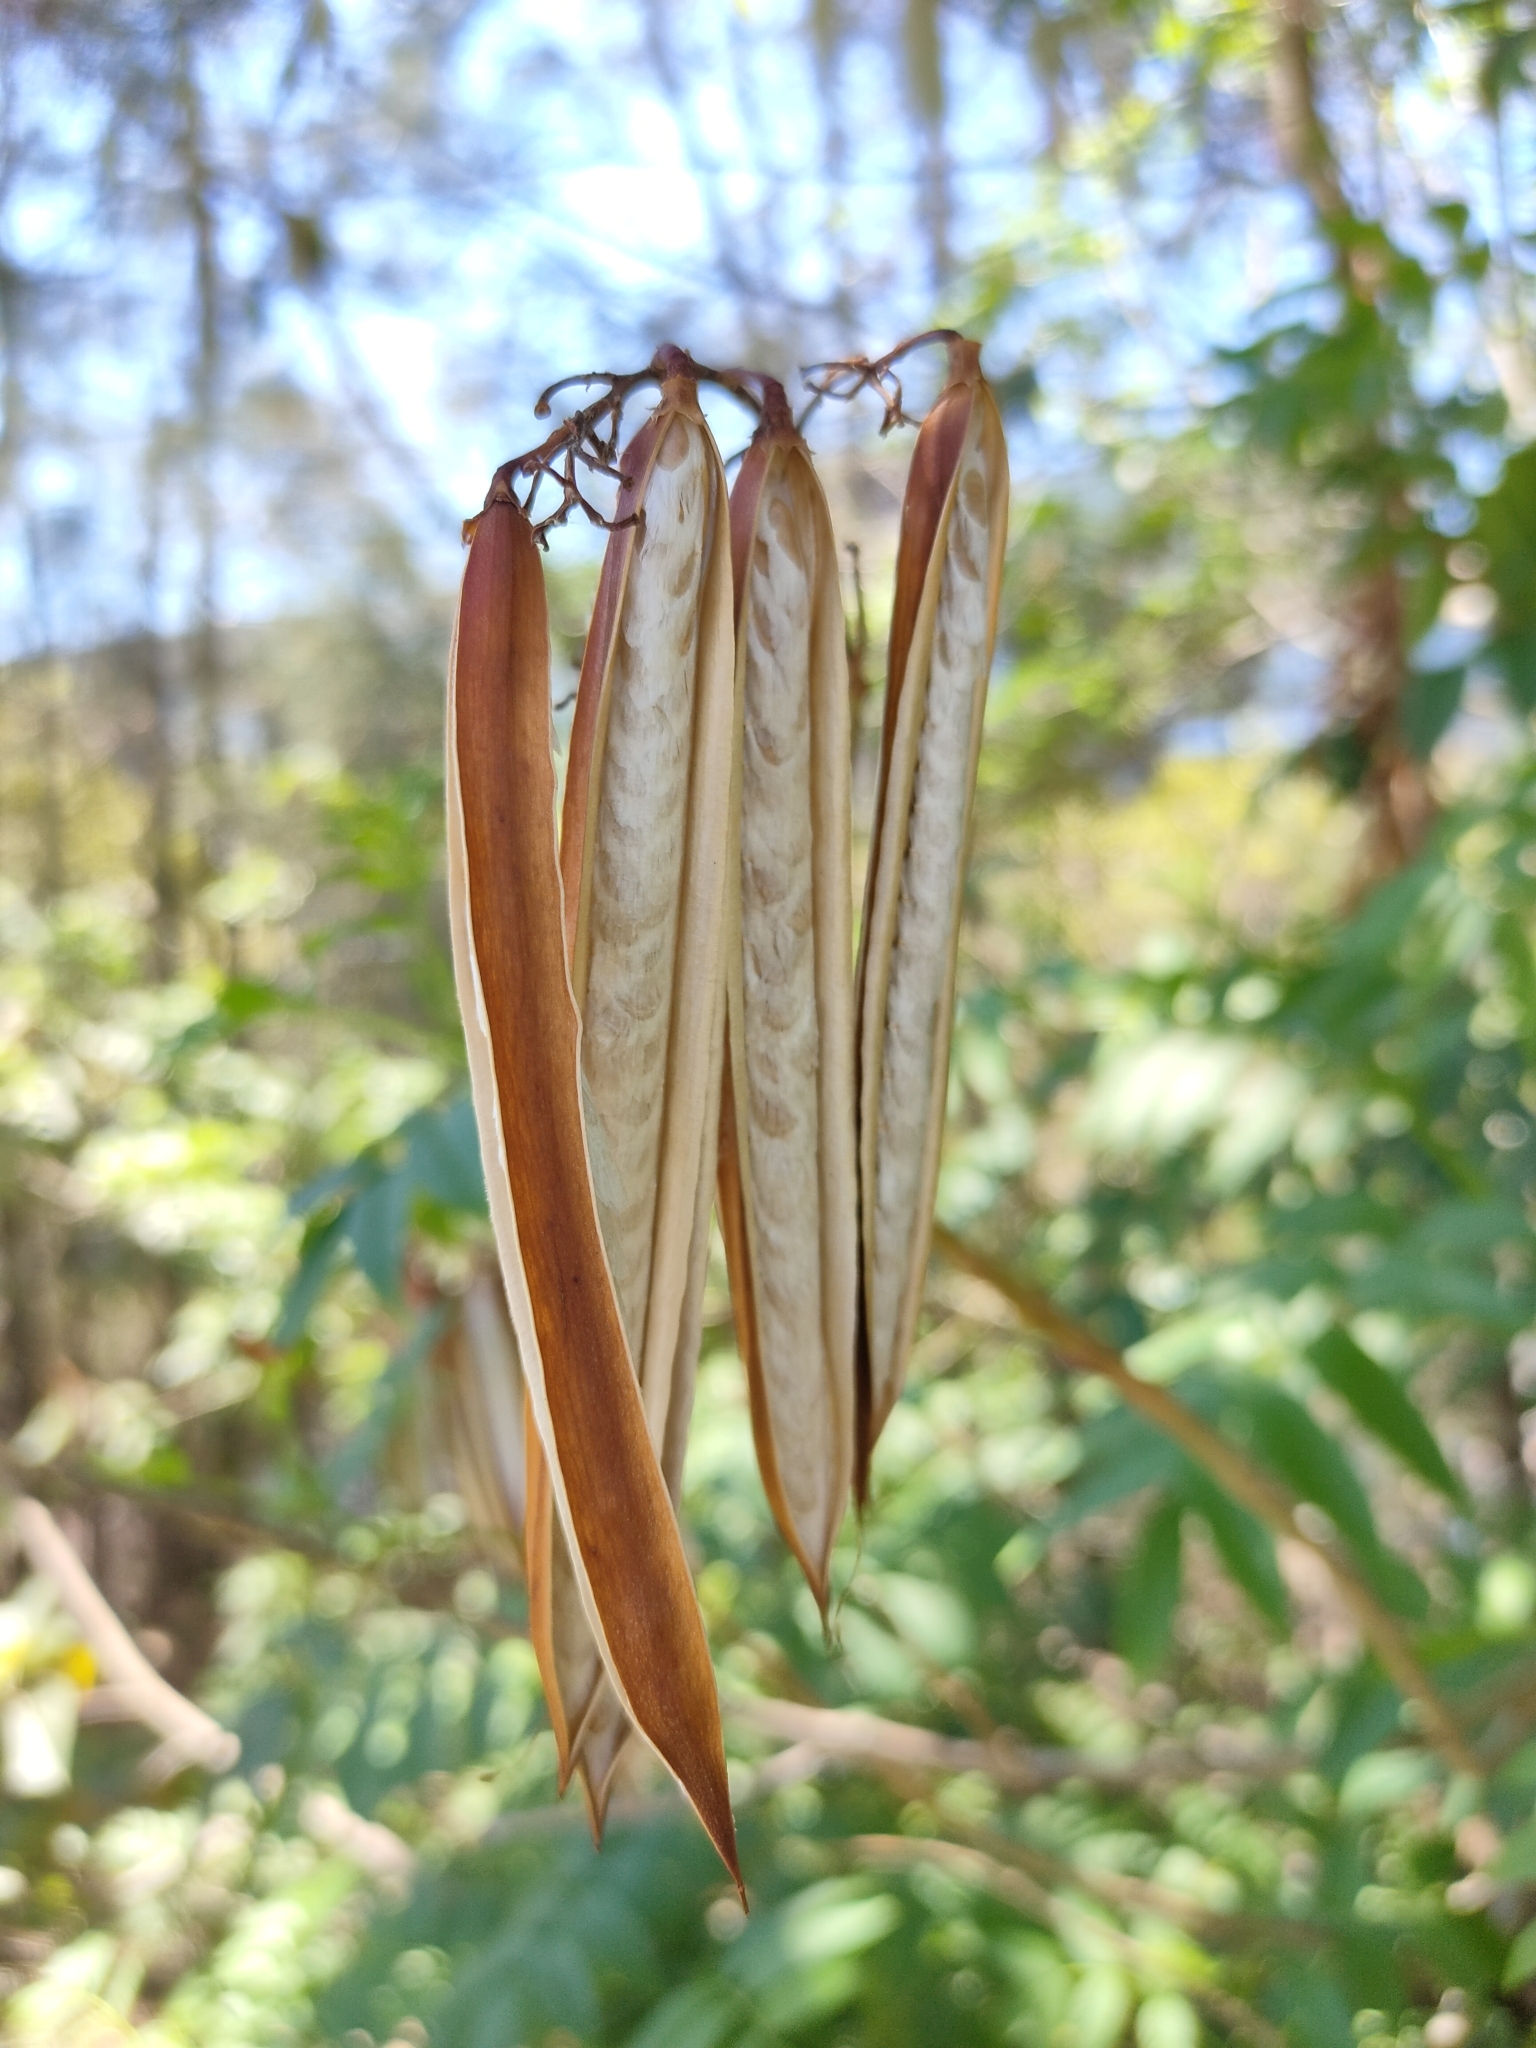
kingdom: Plantae
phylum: Tracheophyta
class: Magnoliopsida
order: Lamiales
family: Bignoniaceae
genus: Tecoma
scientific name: Tecoma stans
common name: Yellow trumpetbush
